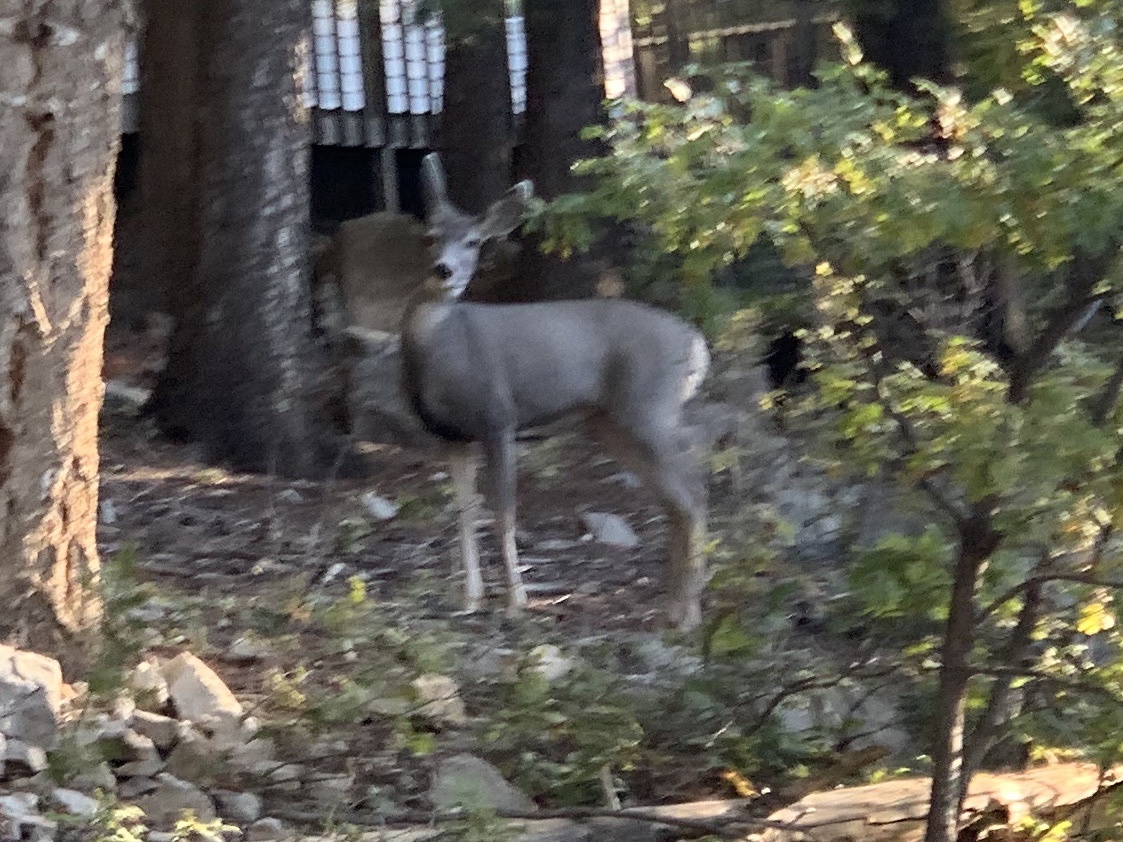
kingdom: Animalia
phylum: Chordata
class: Mammalia
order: Artiodactyla
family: Cervidae
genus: Odocoileus
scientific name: Odocoileus hemionus
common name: Mule deer
